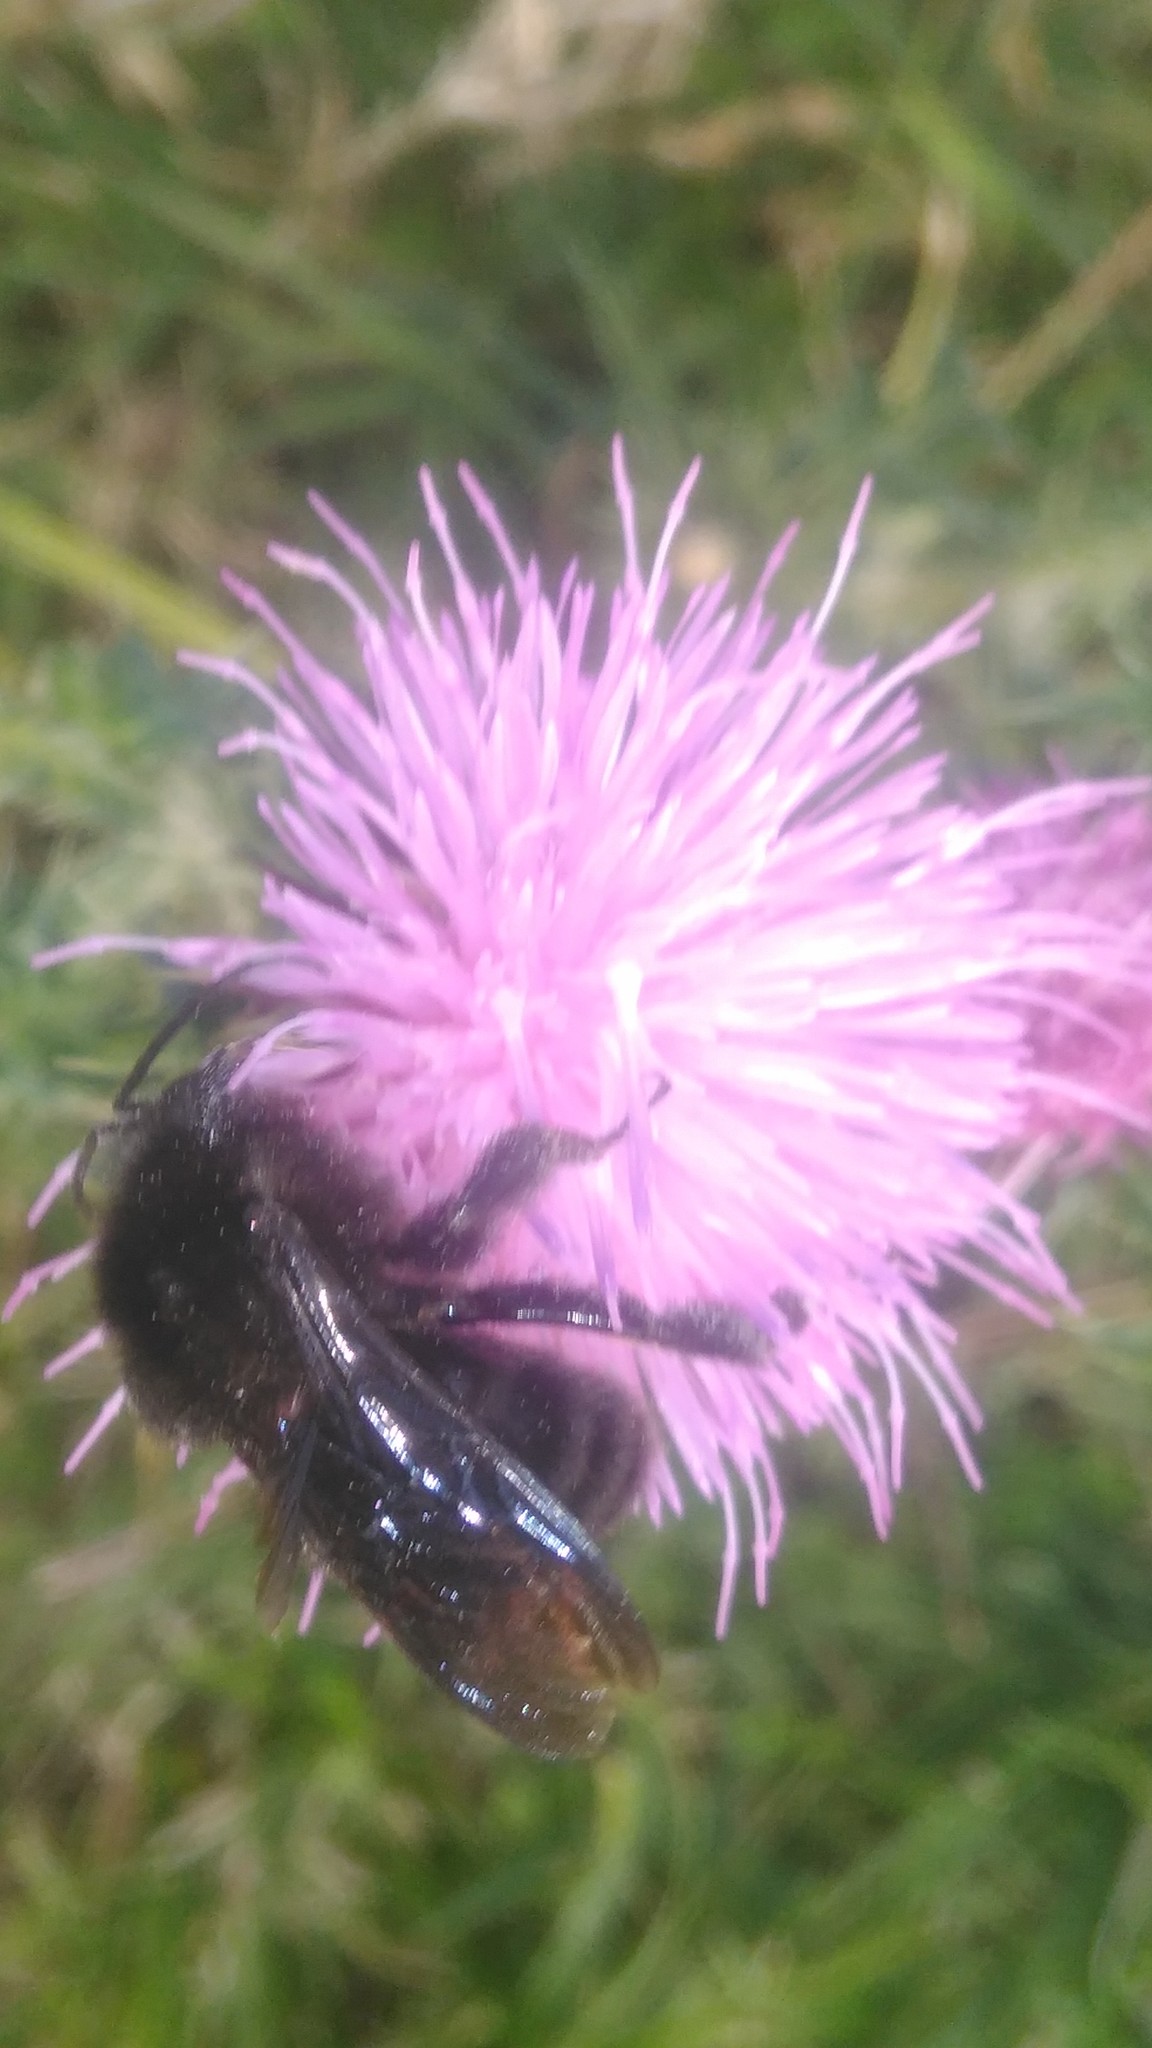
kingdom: Animalia
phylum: Arthropoda
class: Insecta
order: Hymenoptera
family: Apidae
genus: Bombus
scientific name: Bombus pauloensis
